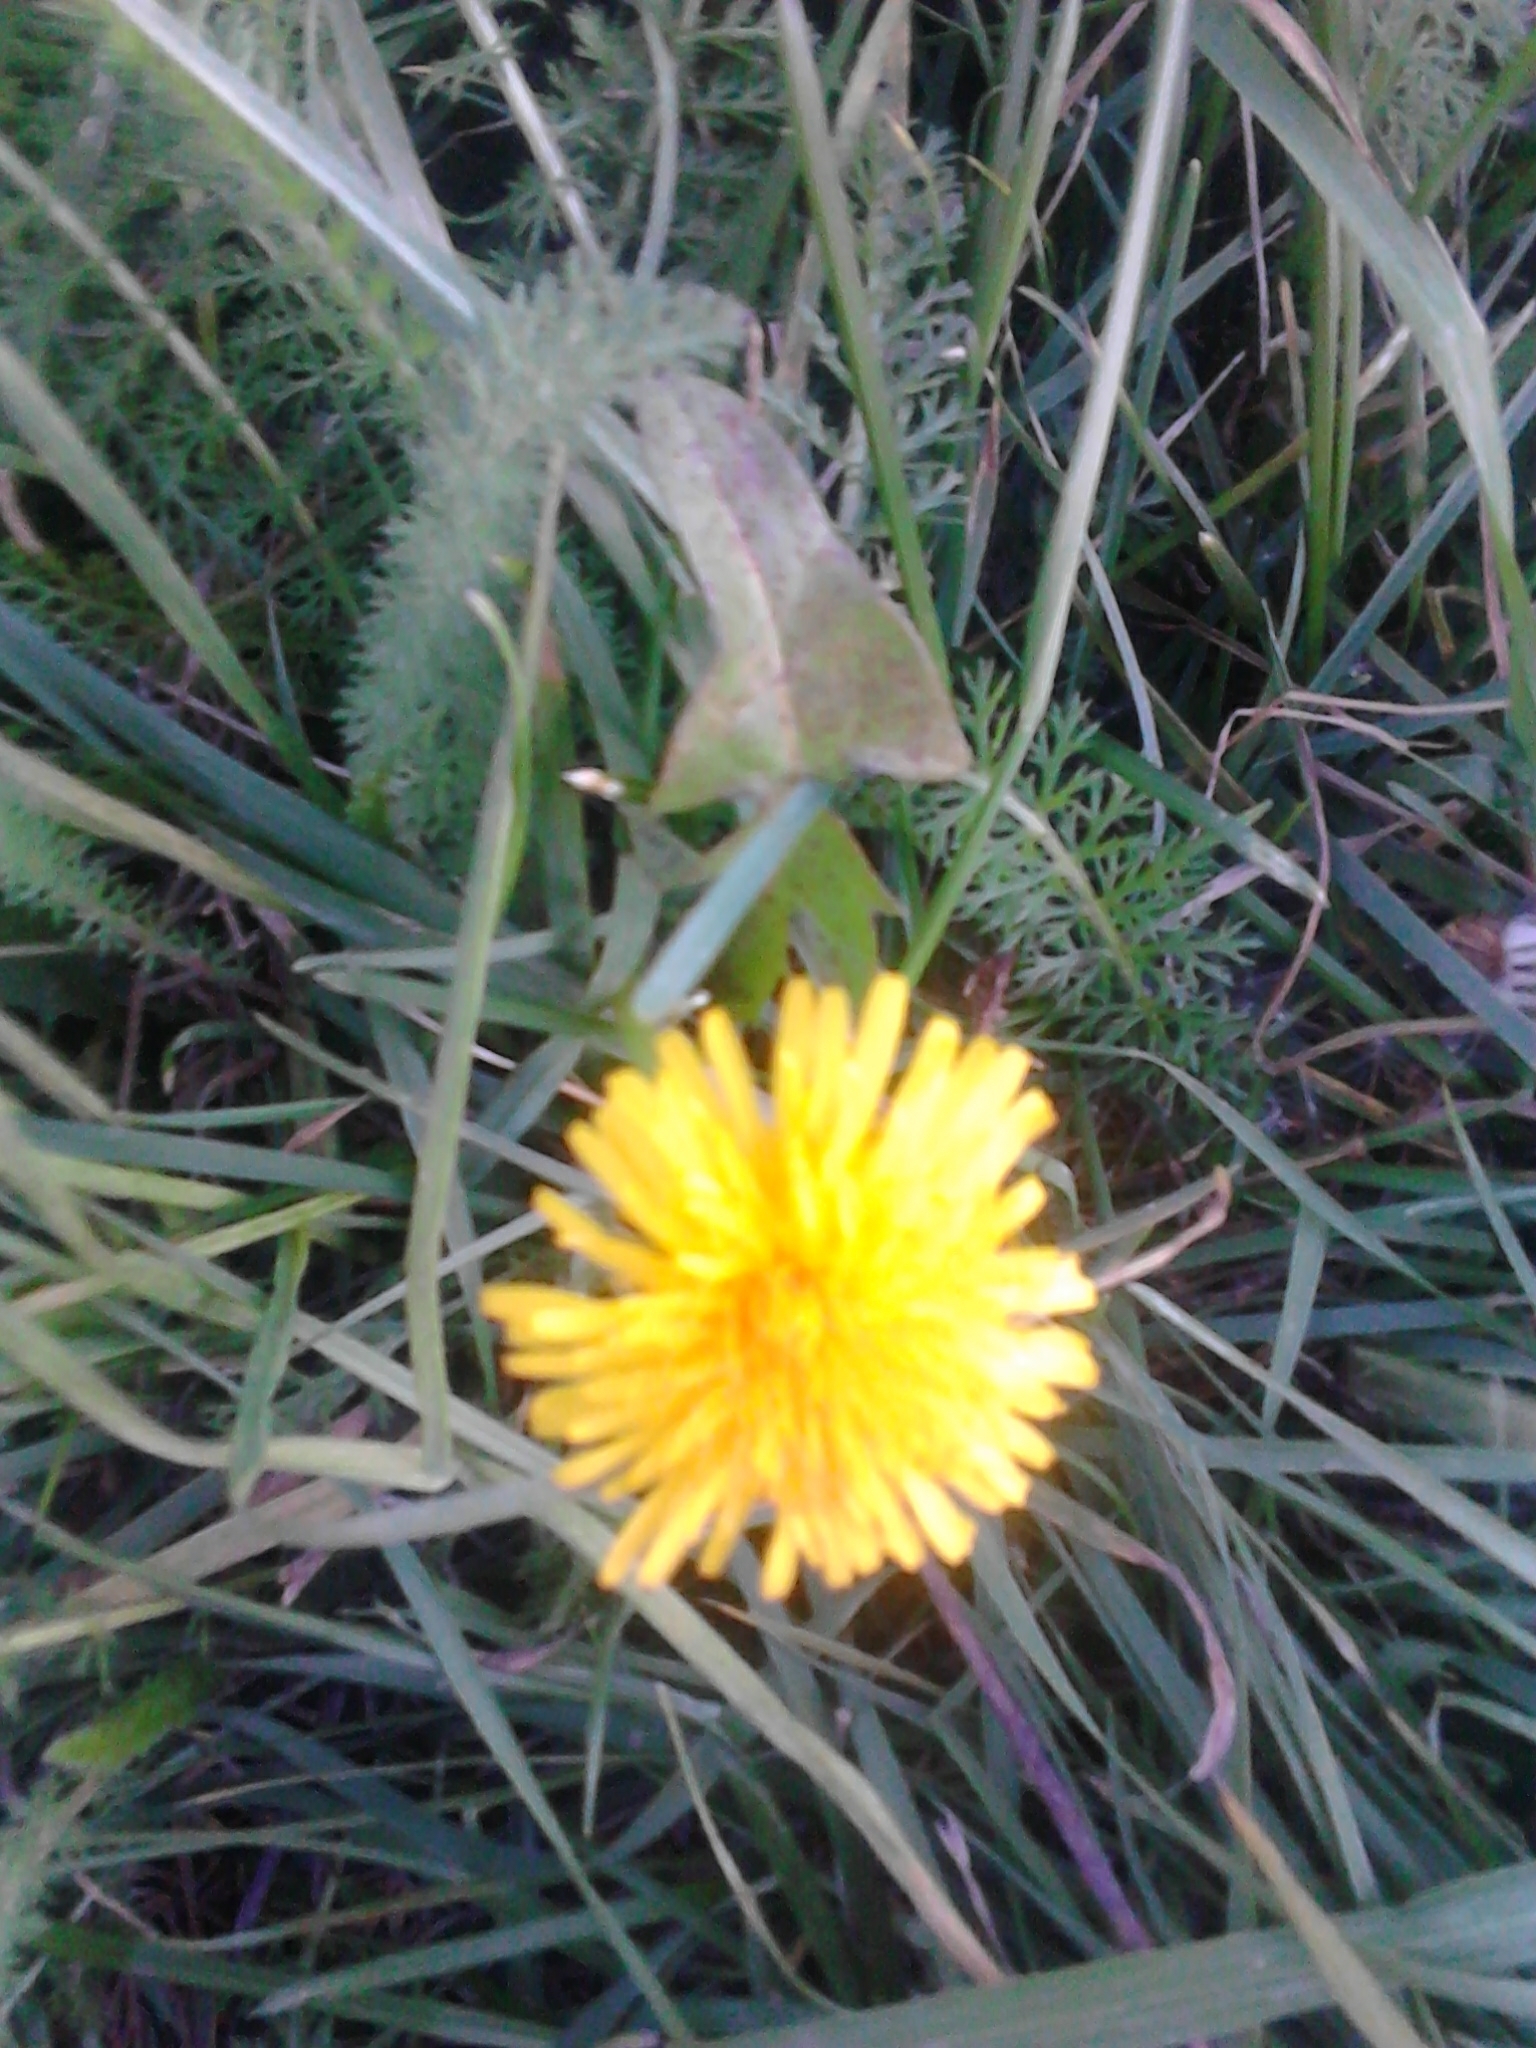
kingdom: Plantae
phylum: Tracheophyta
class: Magnoliopsida
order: Asterales
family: Asteraceae
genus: Taraxacum
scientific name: Taraxacum officinale
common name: Common dandelion
